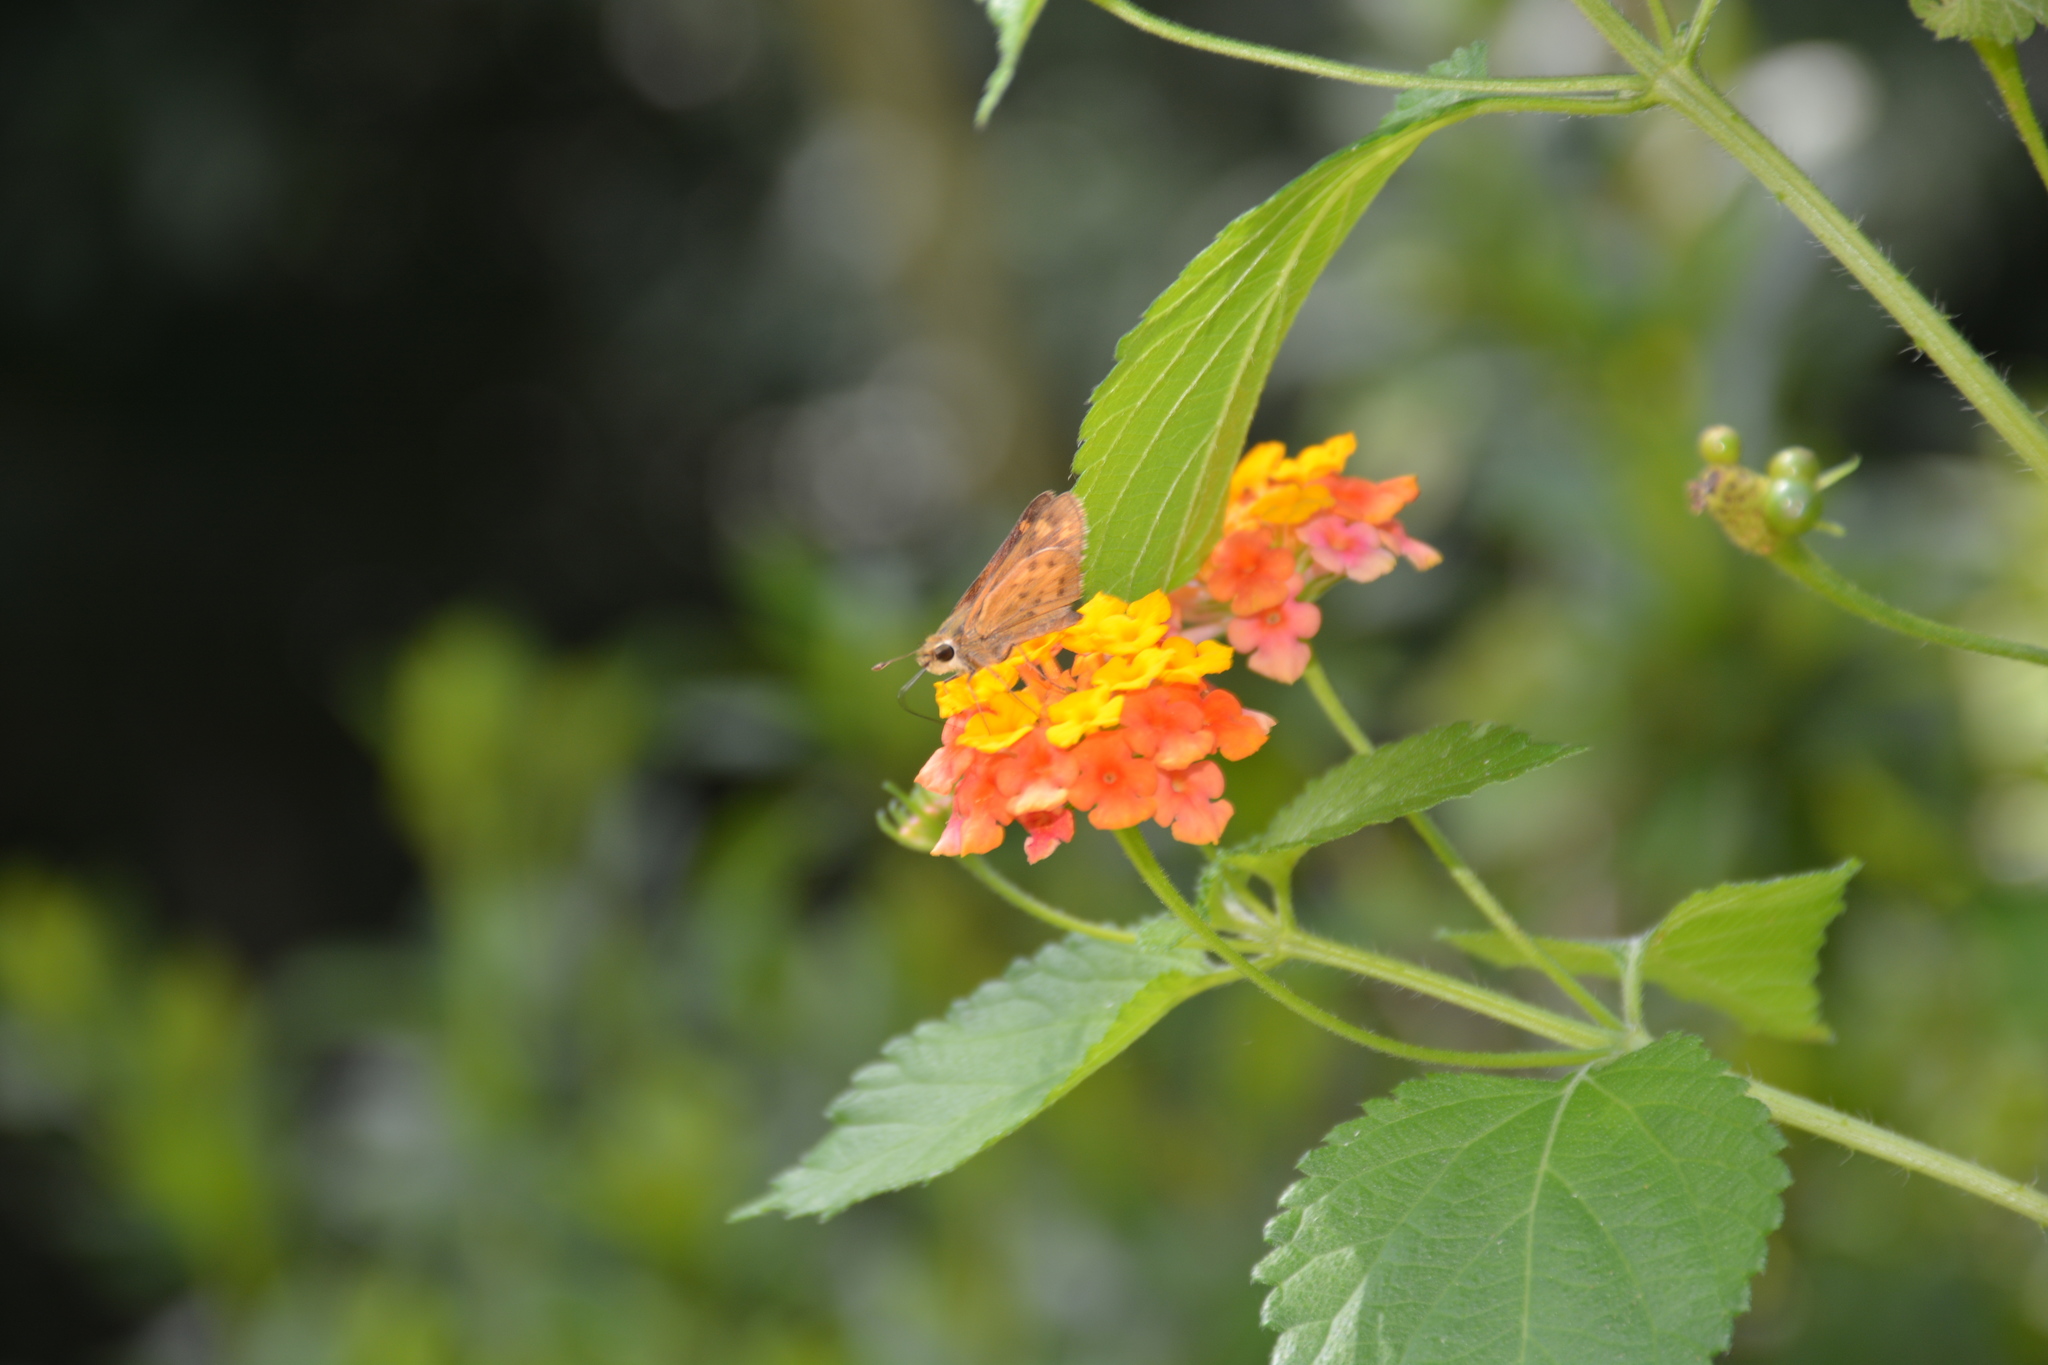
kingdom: Animalia
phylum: Arthropoda
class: Insecta
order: Lepidoptera
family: Hesperiidae
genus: Hylephila
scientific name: Hylephila phyleus
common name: Fiery skipper
